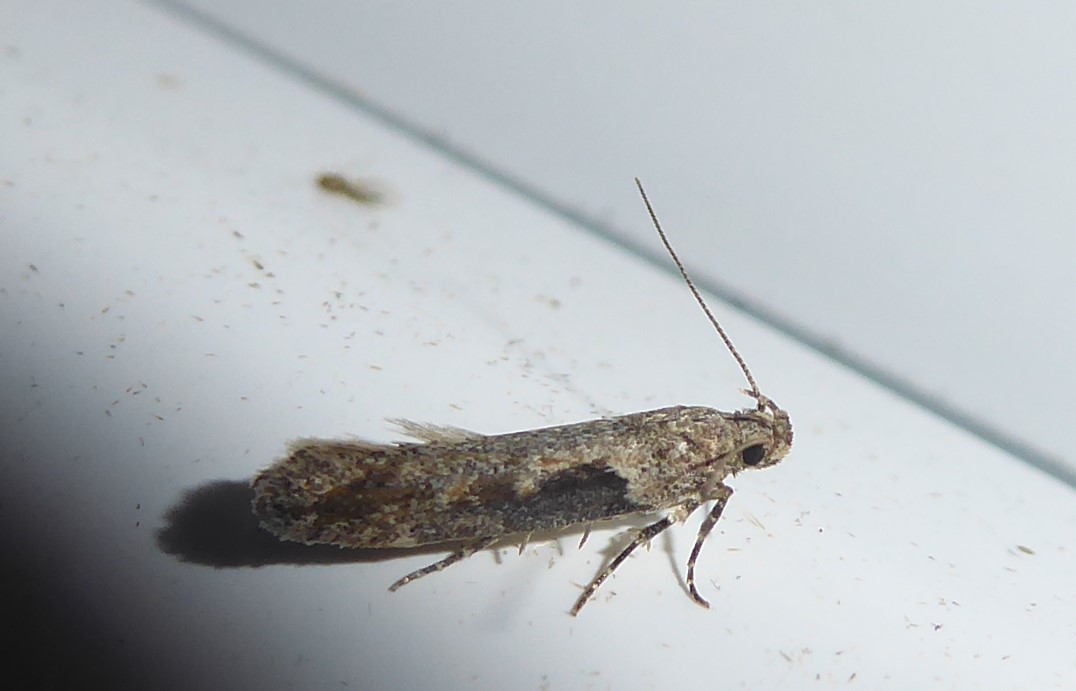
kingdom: Animalia
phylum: Arthropoda
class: Insecta
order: Lepidoptera
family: Gelechiidae
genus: Symmetrischema
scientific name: Symmetrischema tangolias
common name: Moth
